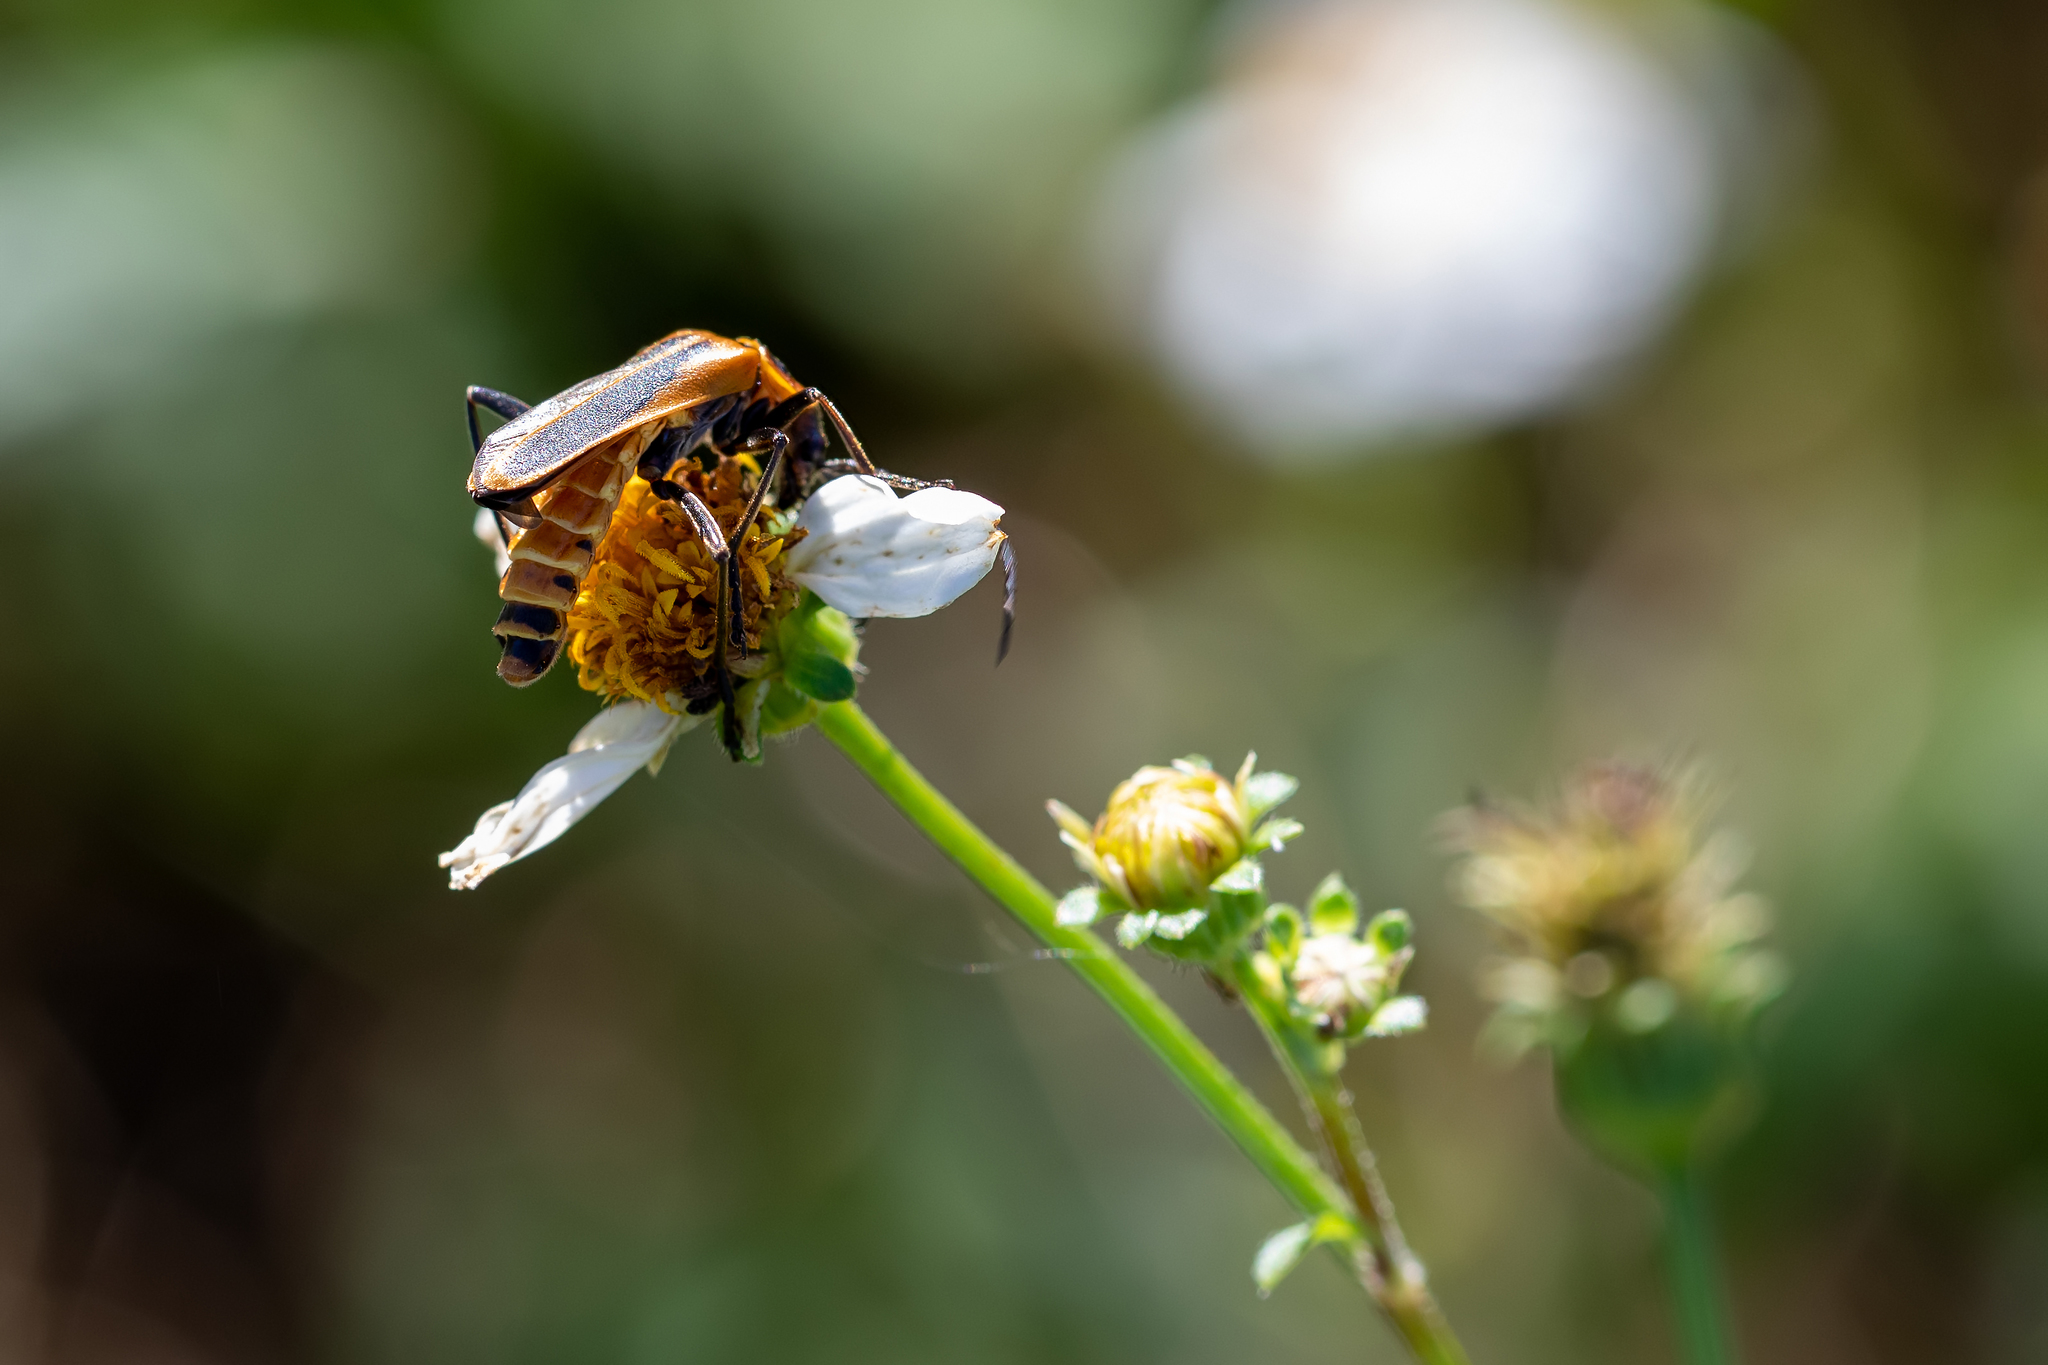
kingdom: Animalia
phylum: Arthropoda
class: Insecta
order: Coleoptera
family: Cantharidae
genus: Chauliognathus
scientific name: Chauliognathus pensylvanicus
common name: Goldenrod soldier beetle
